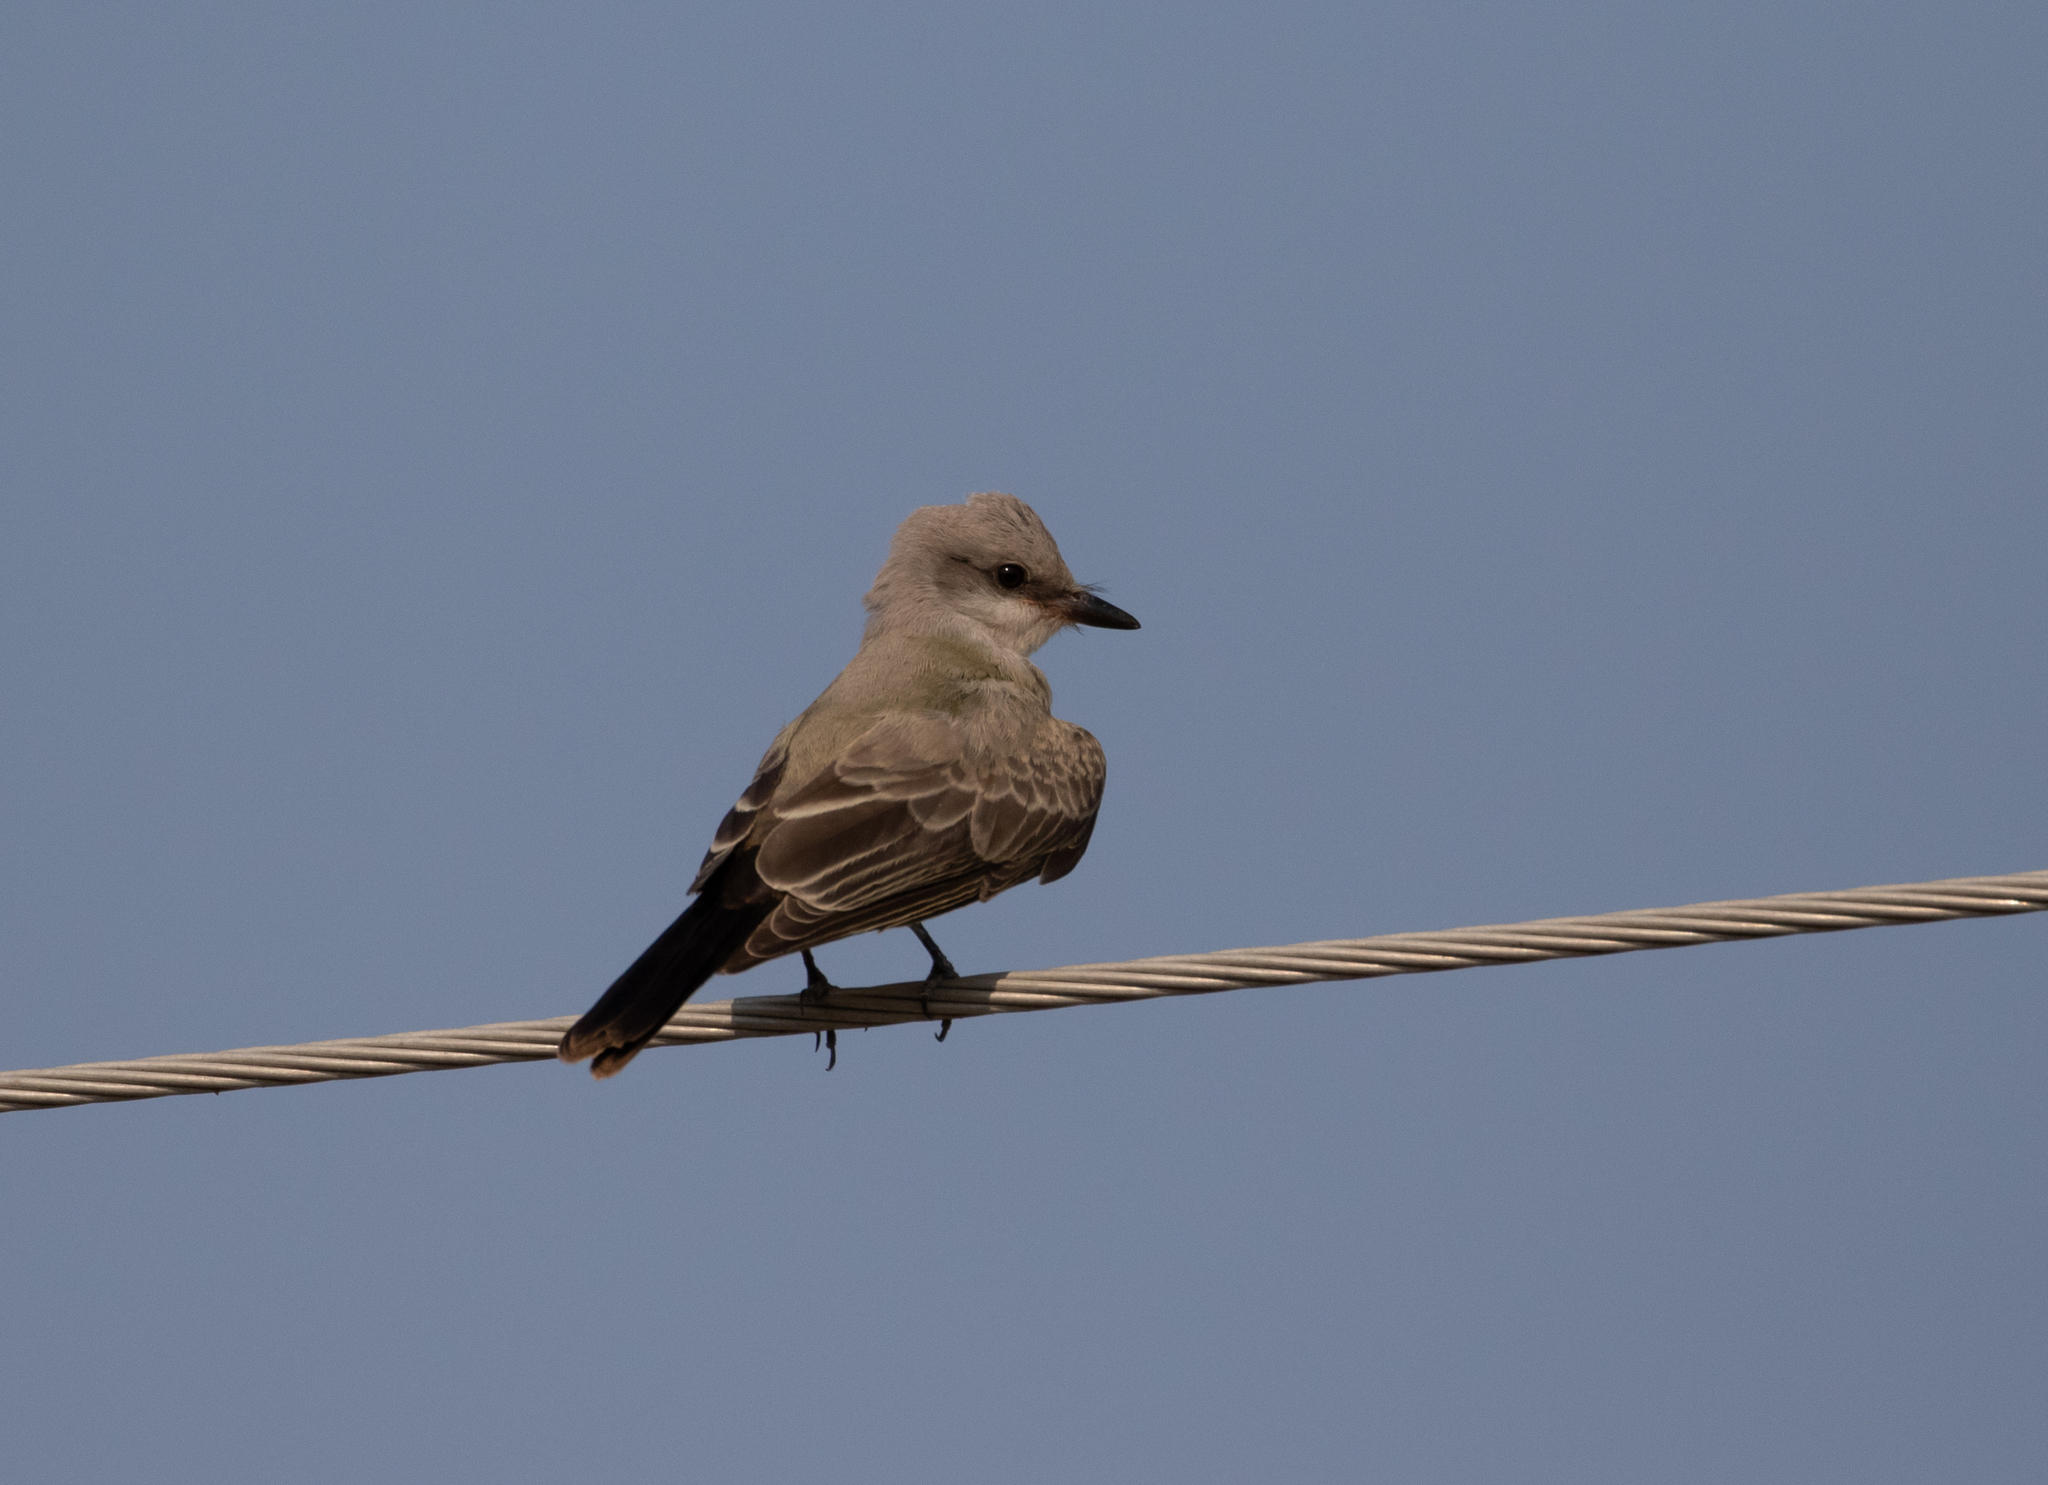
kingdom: Animalia
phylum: Chordata
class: Aves
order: Passeriformes
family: Tyrannidae
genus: Tyrannus
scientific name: Tyrannus verticalis
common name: Western kingbird
